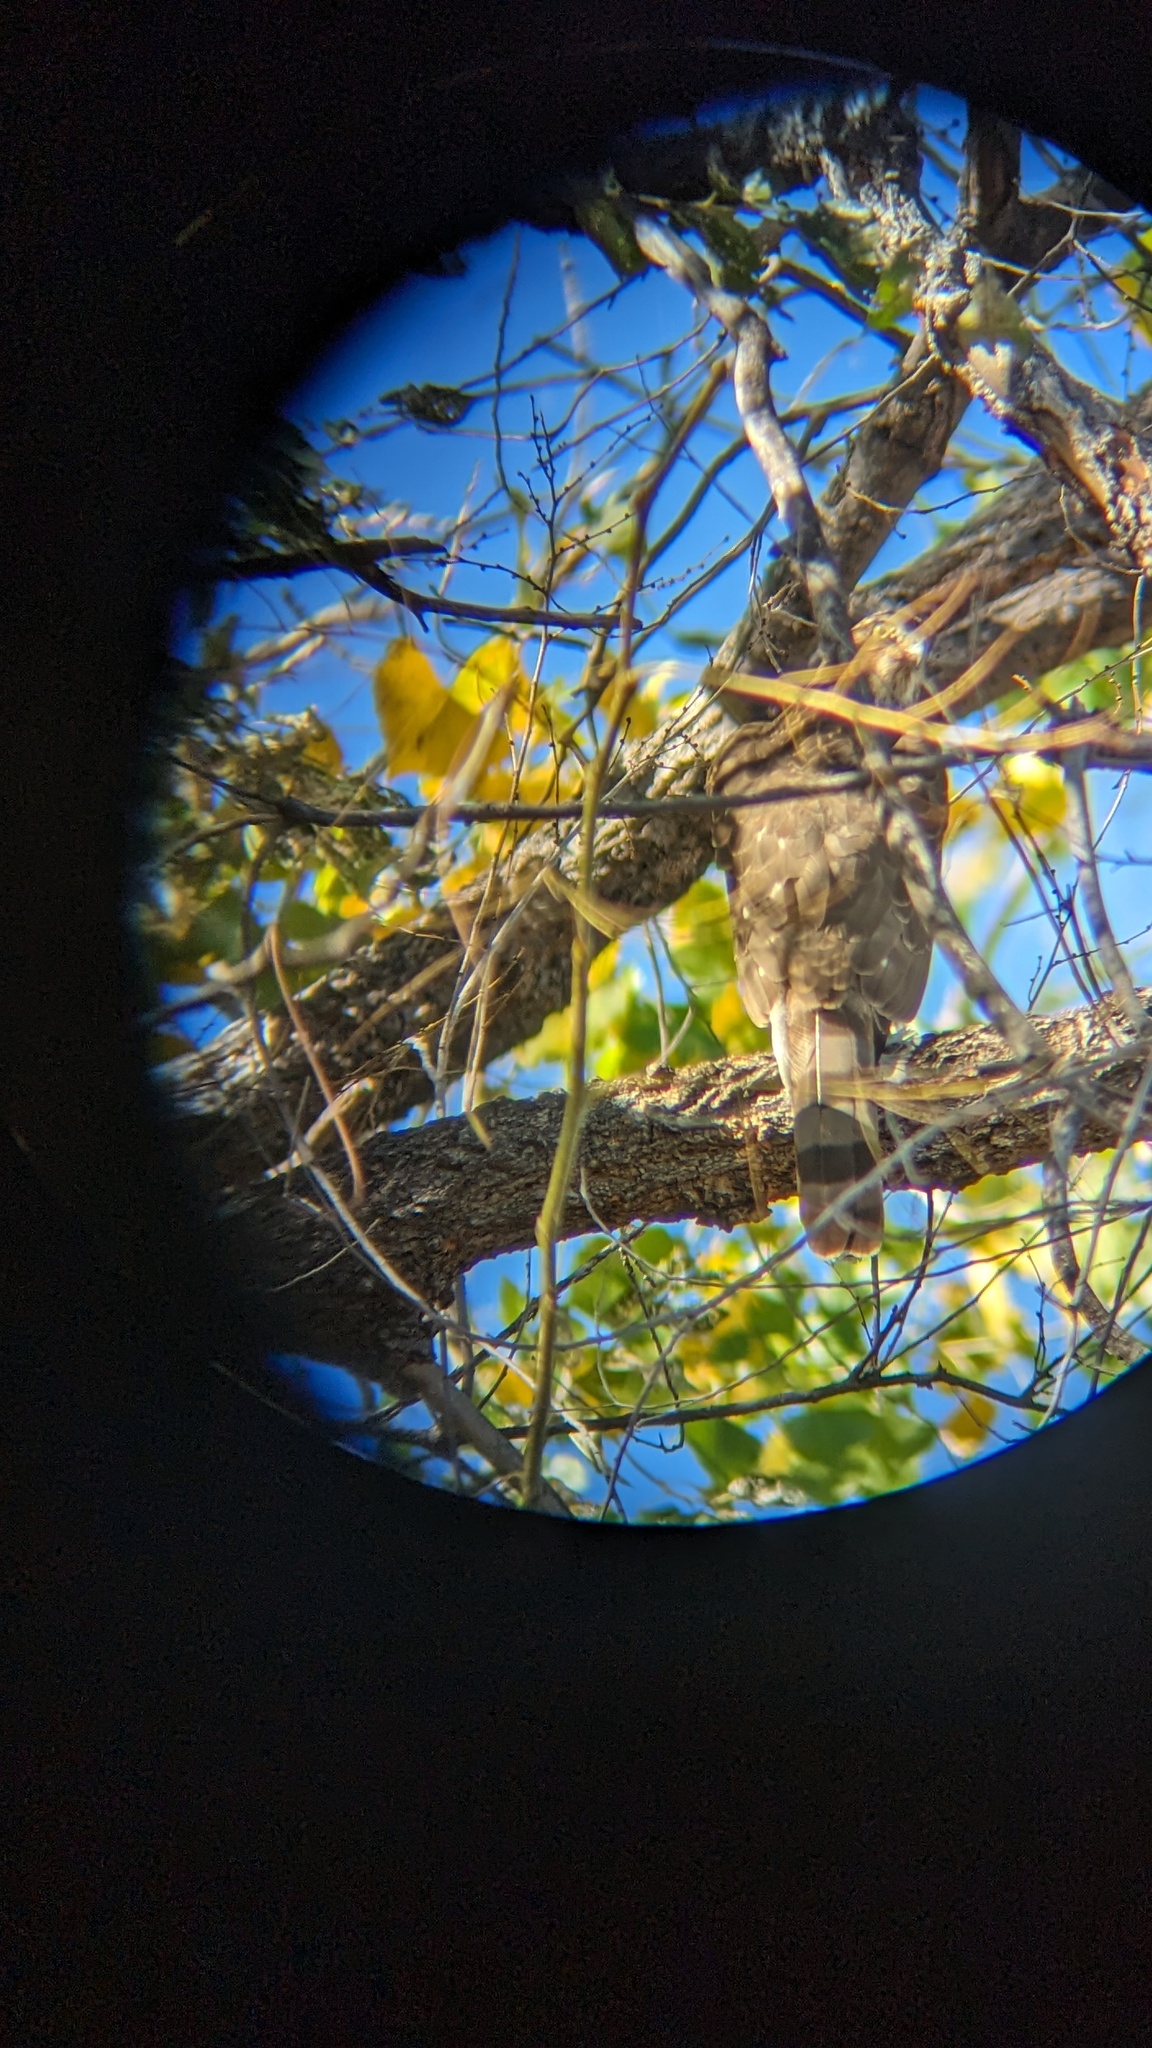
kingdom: Animalia
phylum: Chordata
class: Aves
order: Accipitriformes
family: Accipitridae
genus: Accipiter
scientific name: Accipiter cooperii
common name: Cooper's hawk
